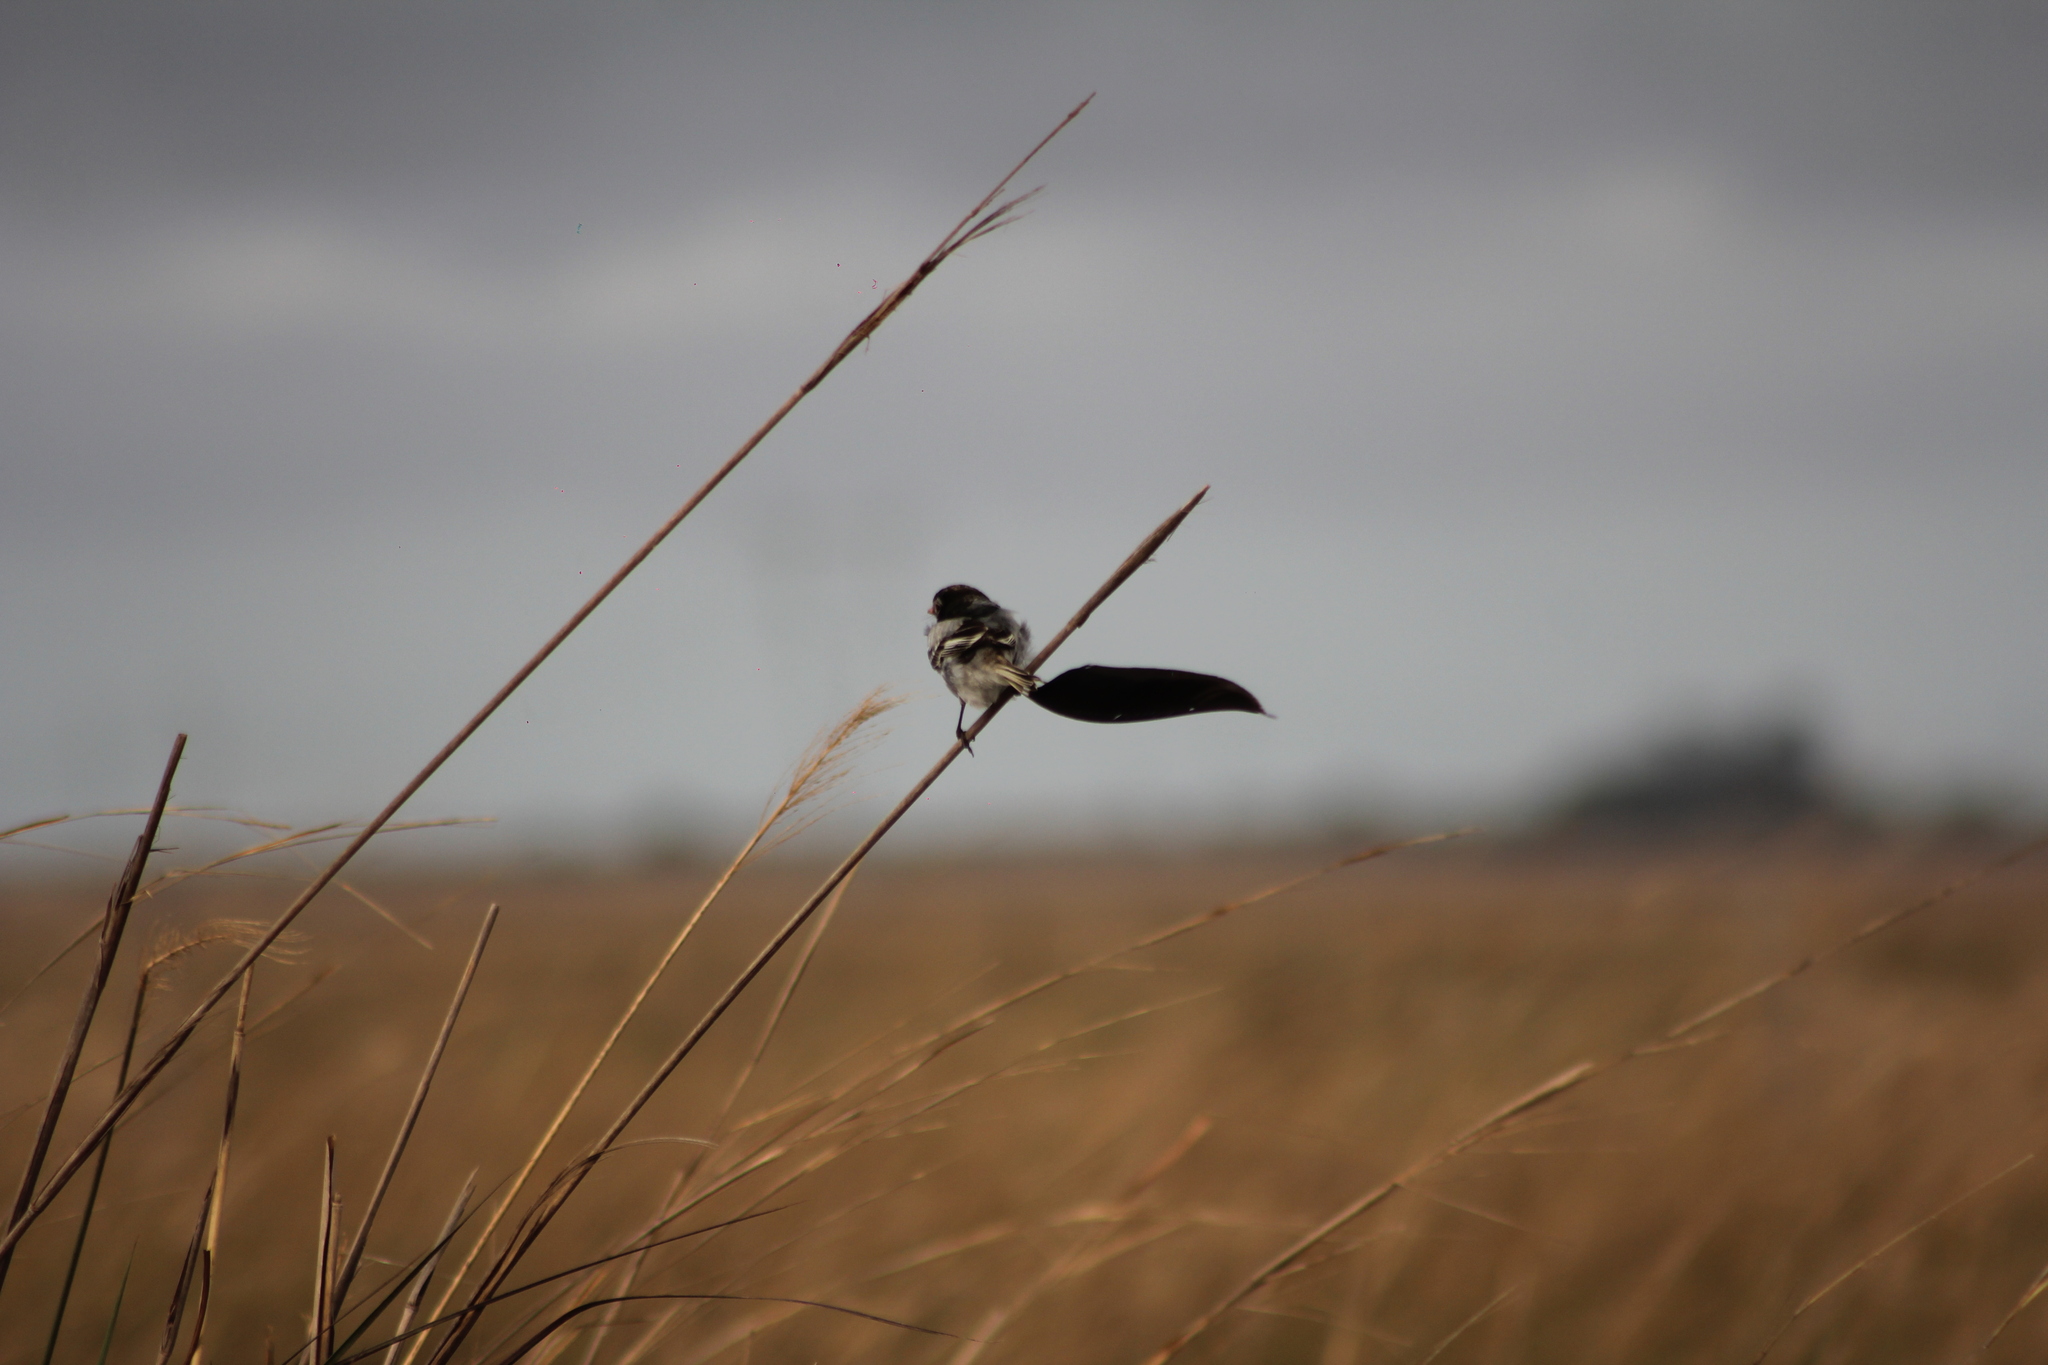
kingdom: Animalia
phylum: Chordata
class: Aves
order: Passeriformes
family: Tyrannidae
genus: Alectrurus
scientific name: Alectrurus risora
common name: Strange-tailed tyrant
